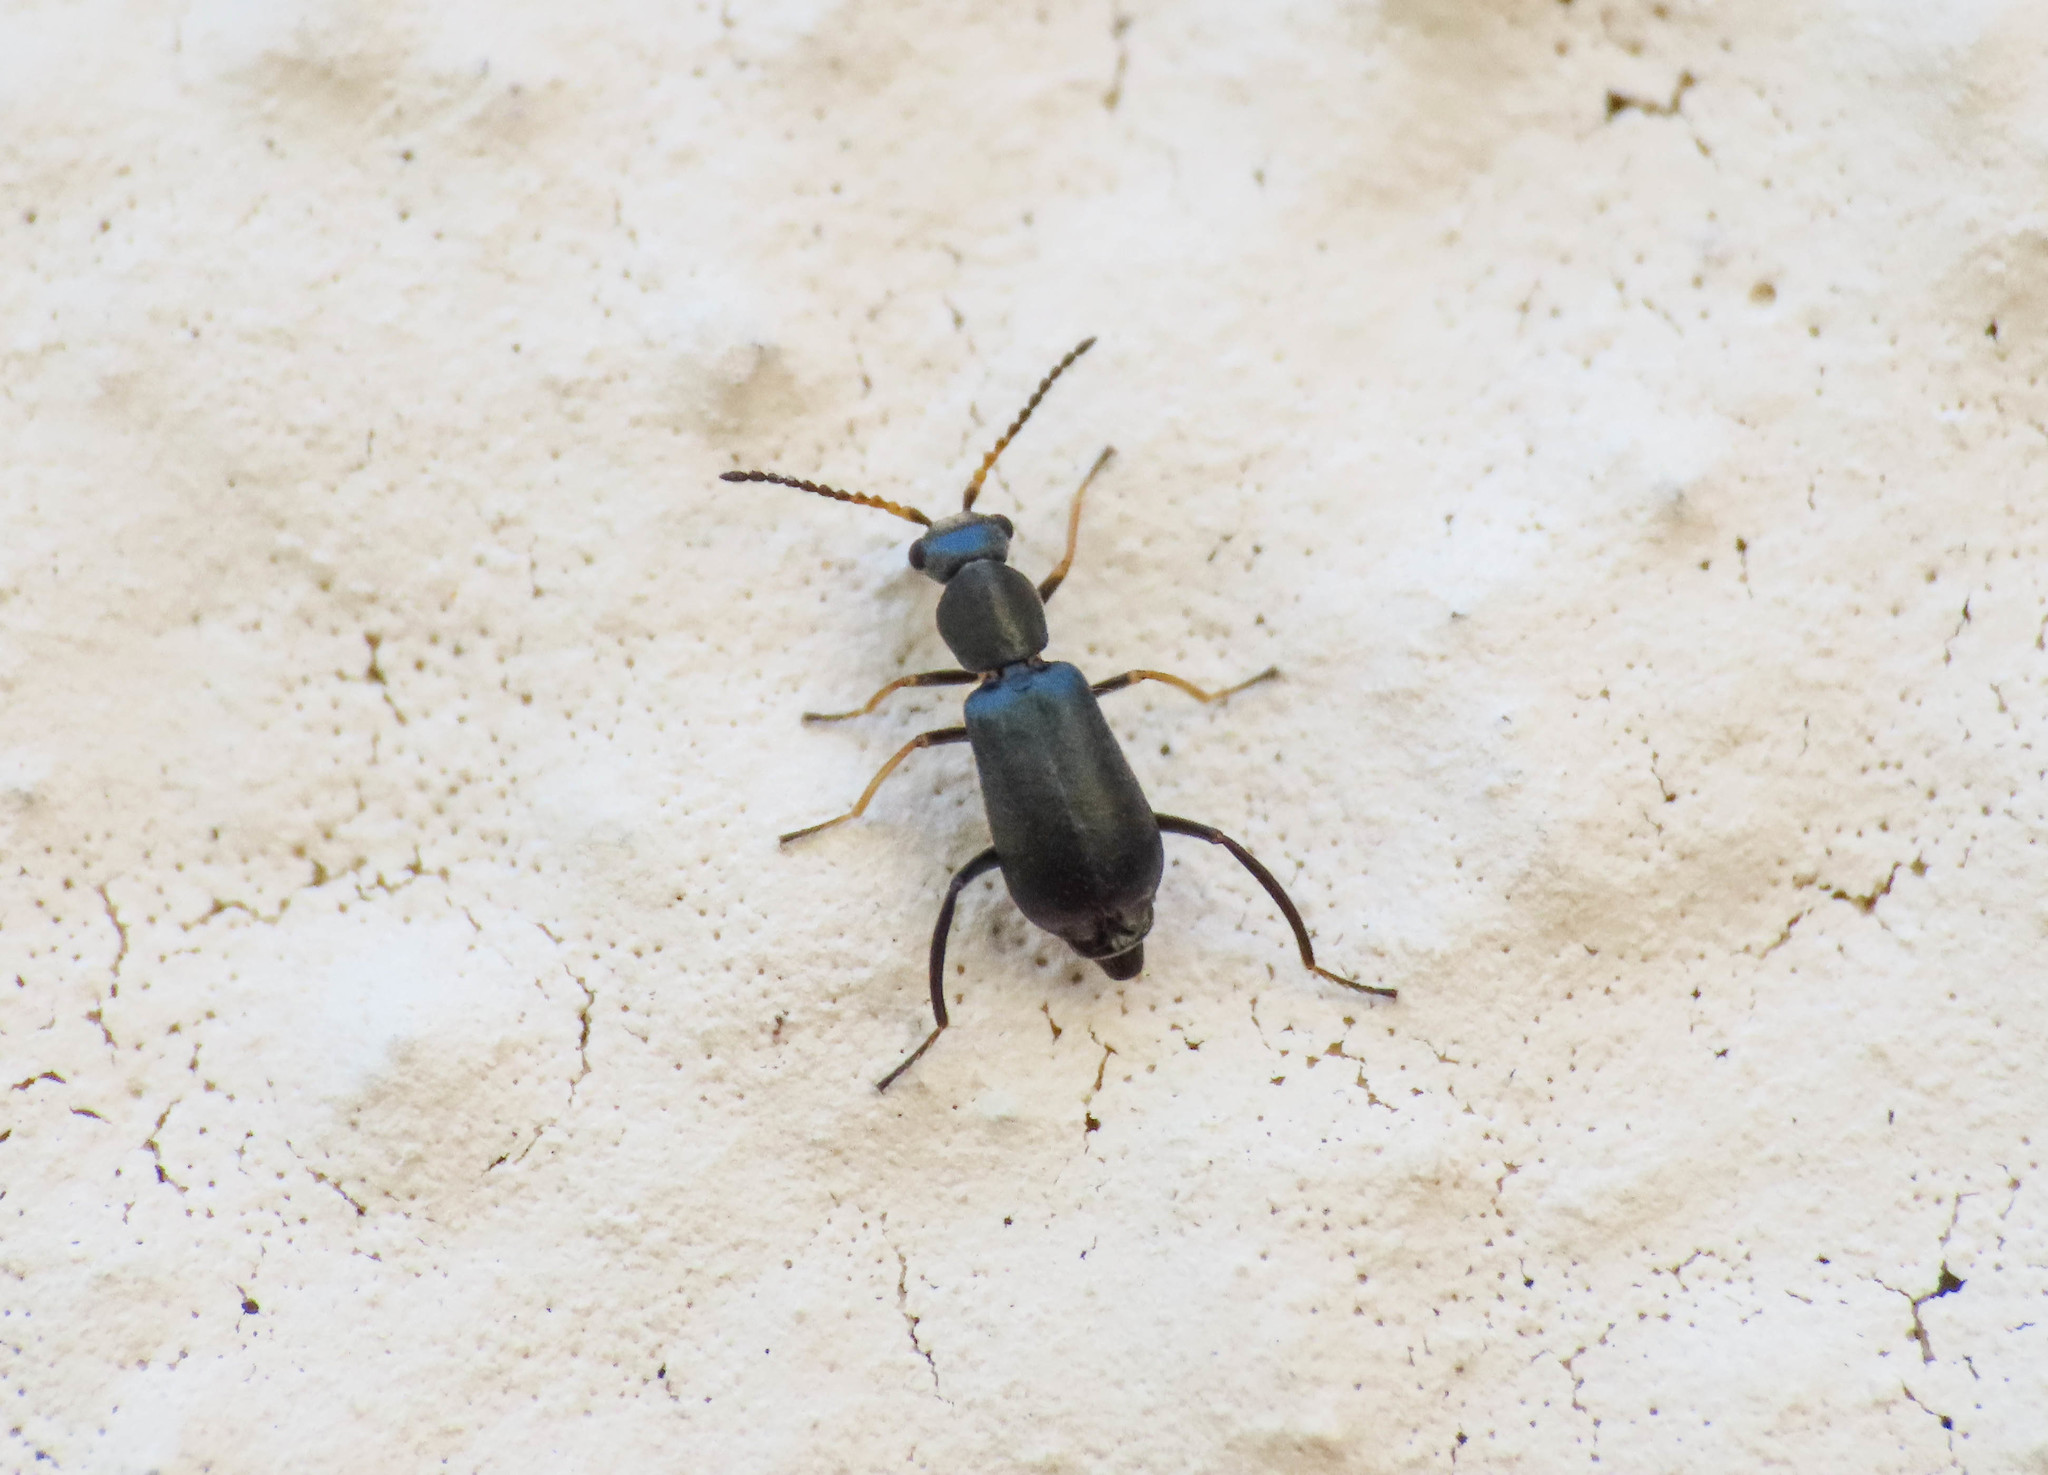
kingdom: Animalia
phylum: Arthropoda
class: Insecta
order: Coleoptera
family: Malachiidae
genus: Charopus
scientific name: Charopus pallipes
